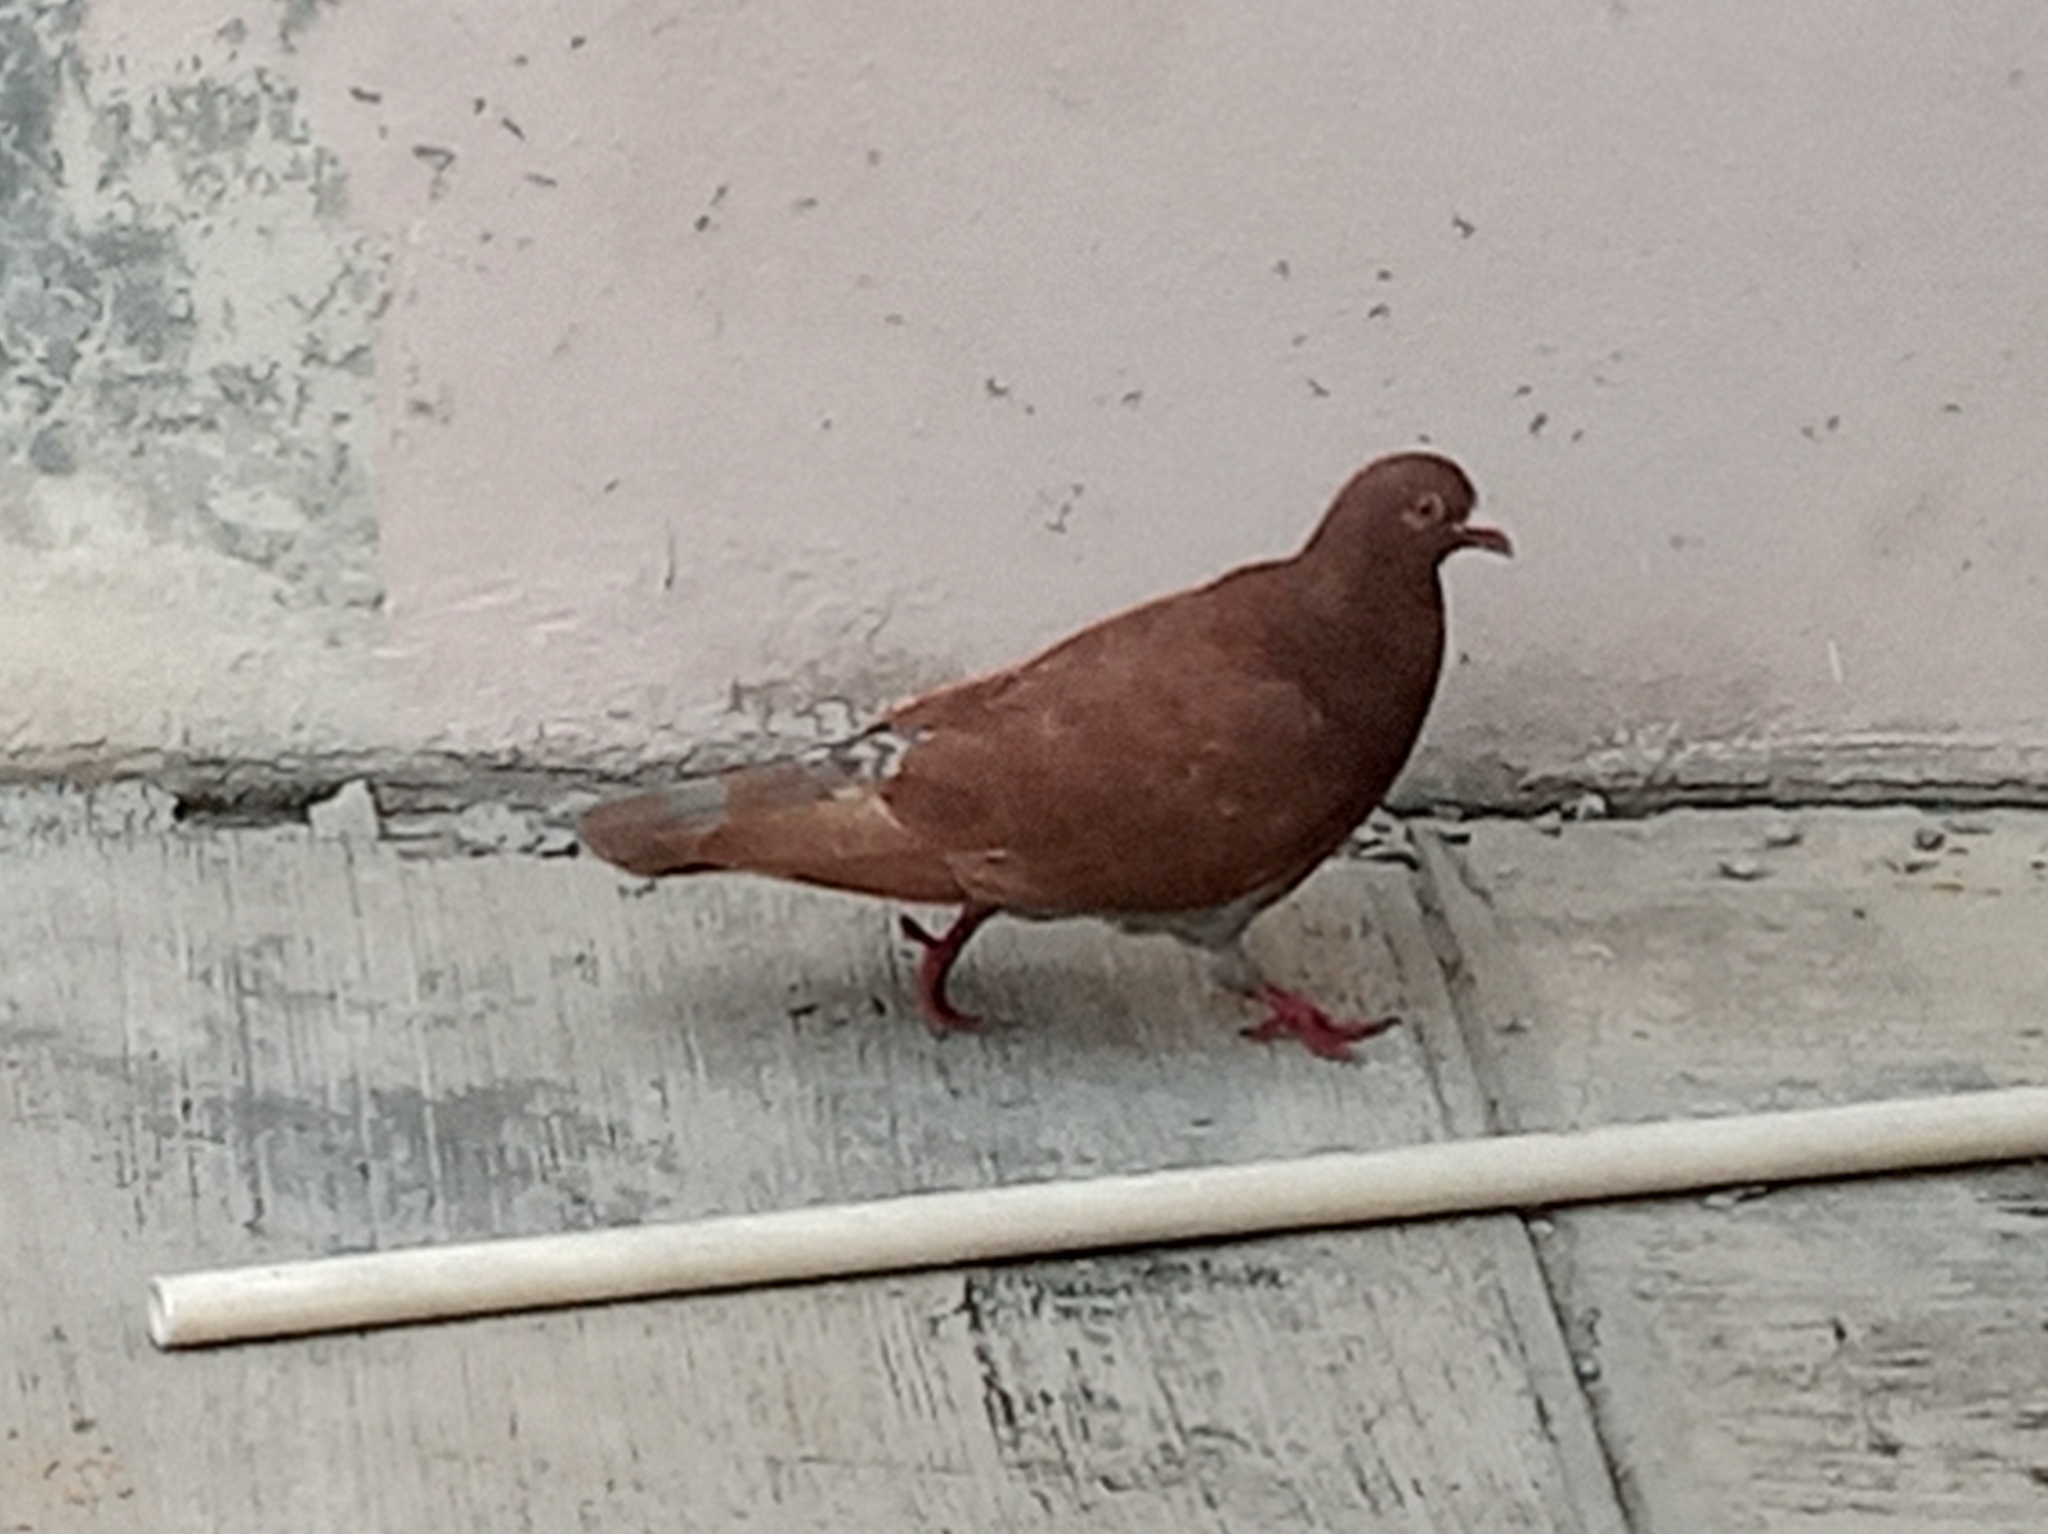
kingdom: Animalia
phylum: Chordata
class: Aves
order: Columbiformes
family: Columbidae
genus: Columba
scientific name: Columba livia
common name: Rock pigeon
